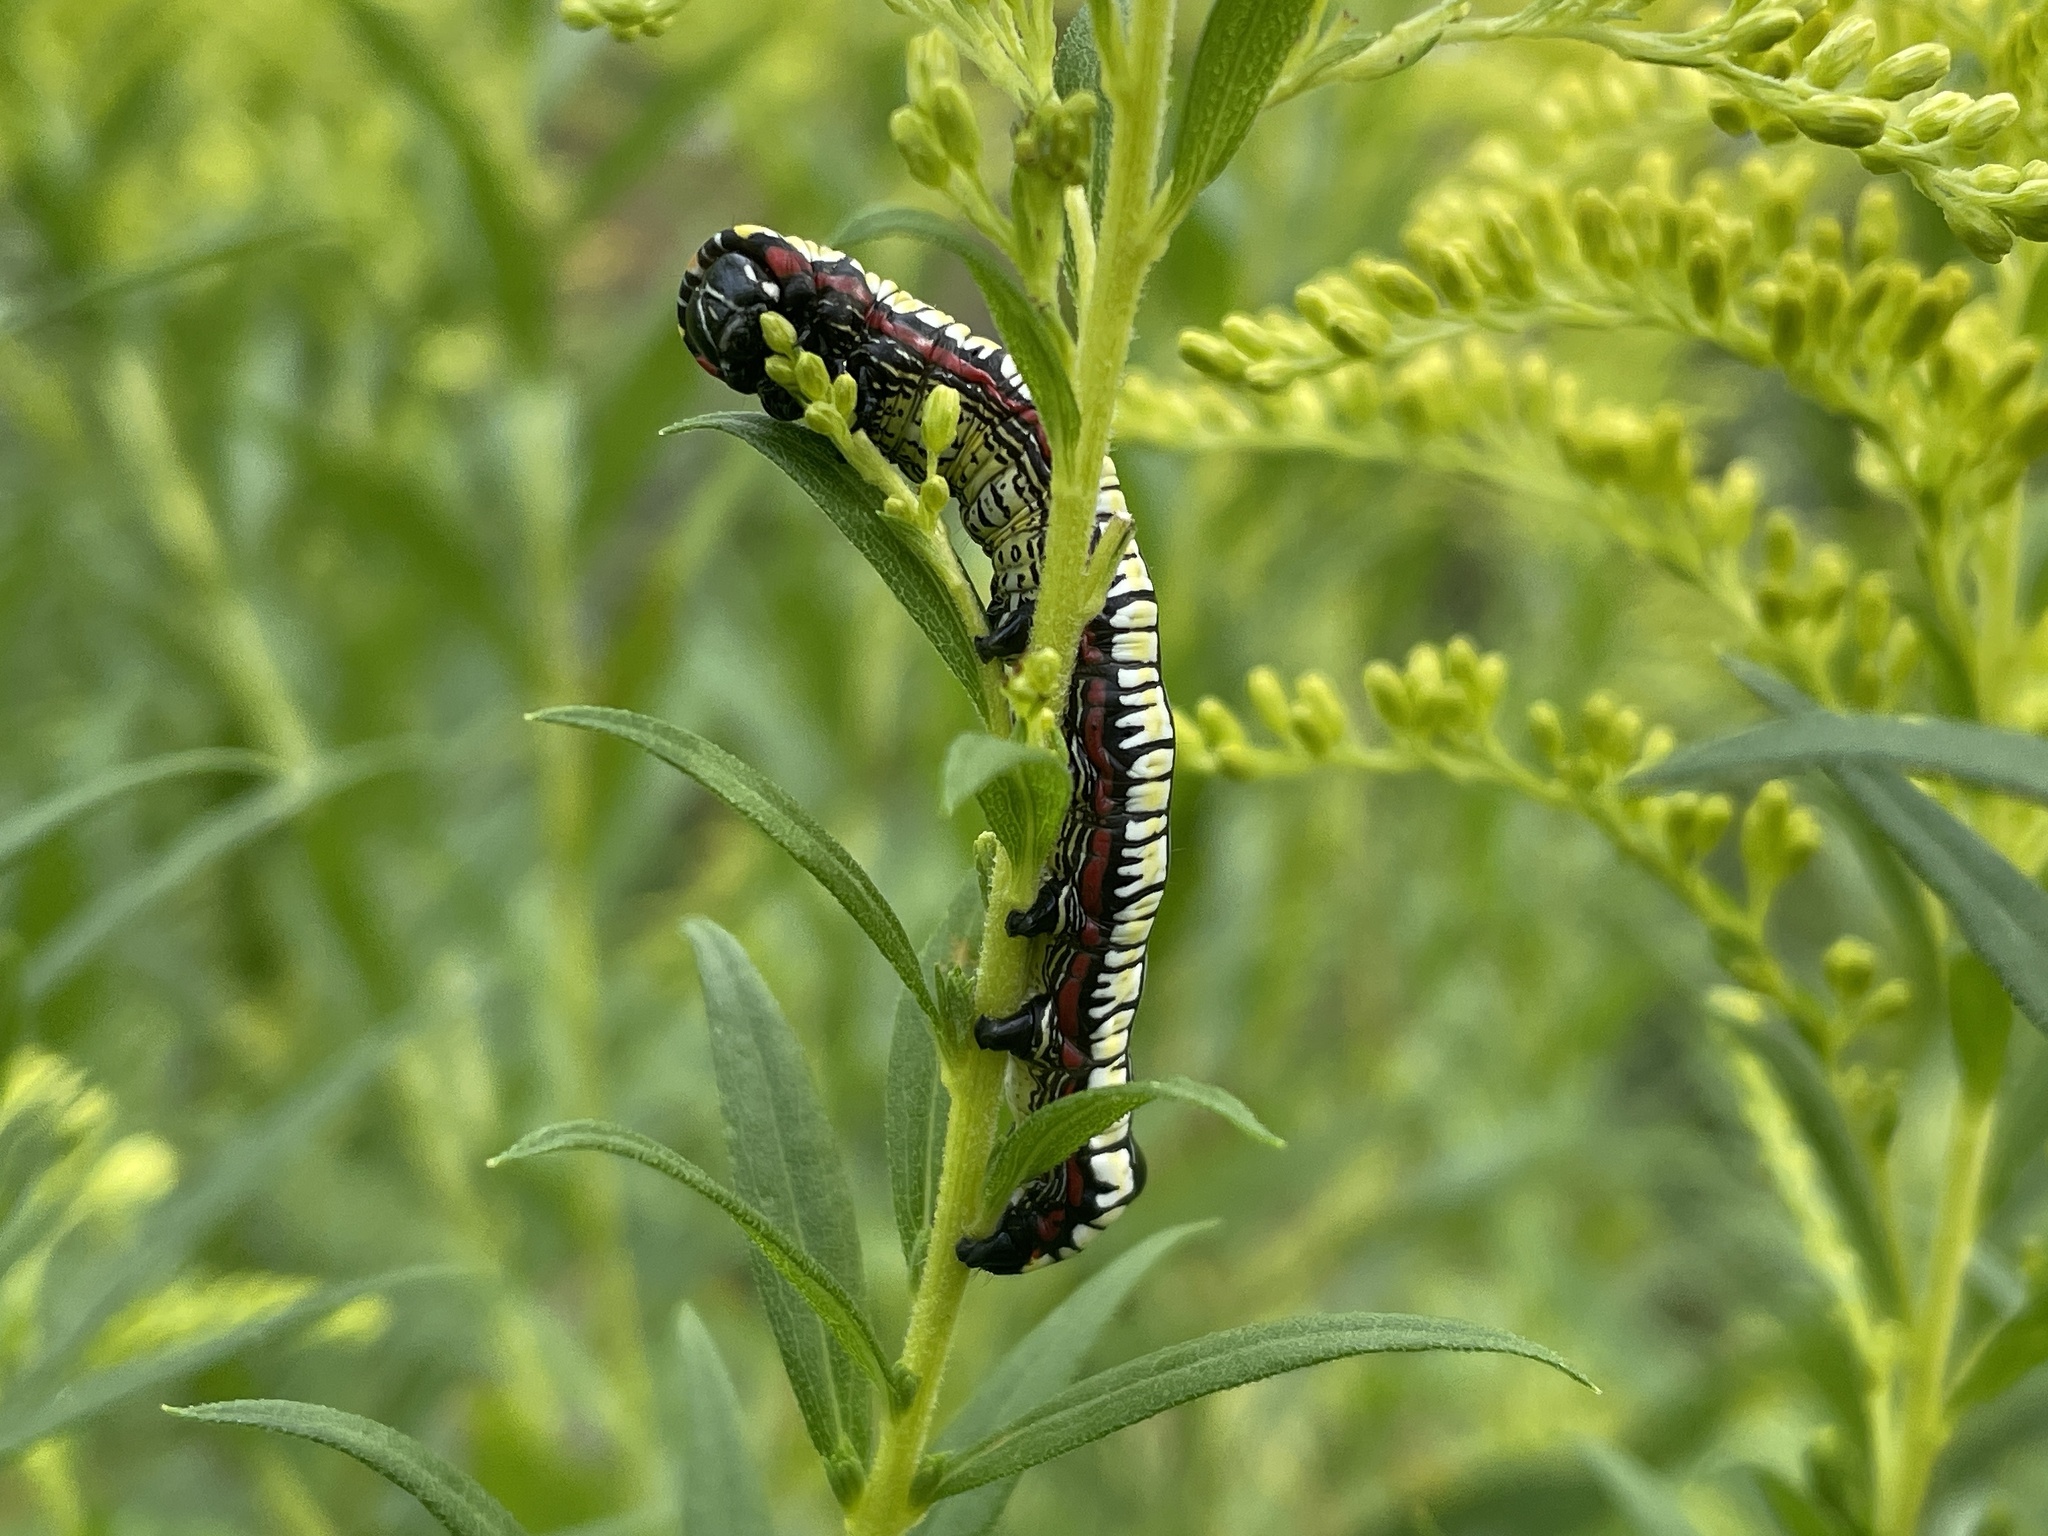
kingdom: Animalia
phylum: Arthropoda
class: Insecta
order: Lepidoptera
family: Noctuidae
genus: Cucullia
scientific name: Cucullia convexipennis
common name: Brown-hooded owlet
